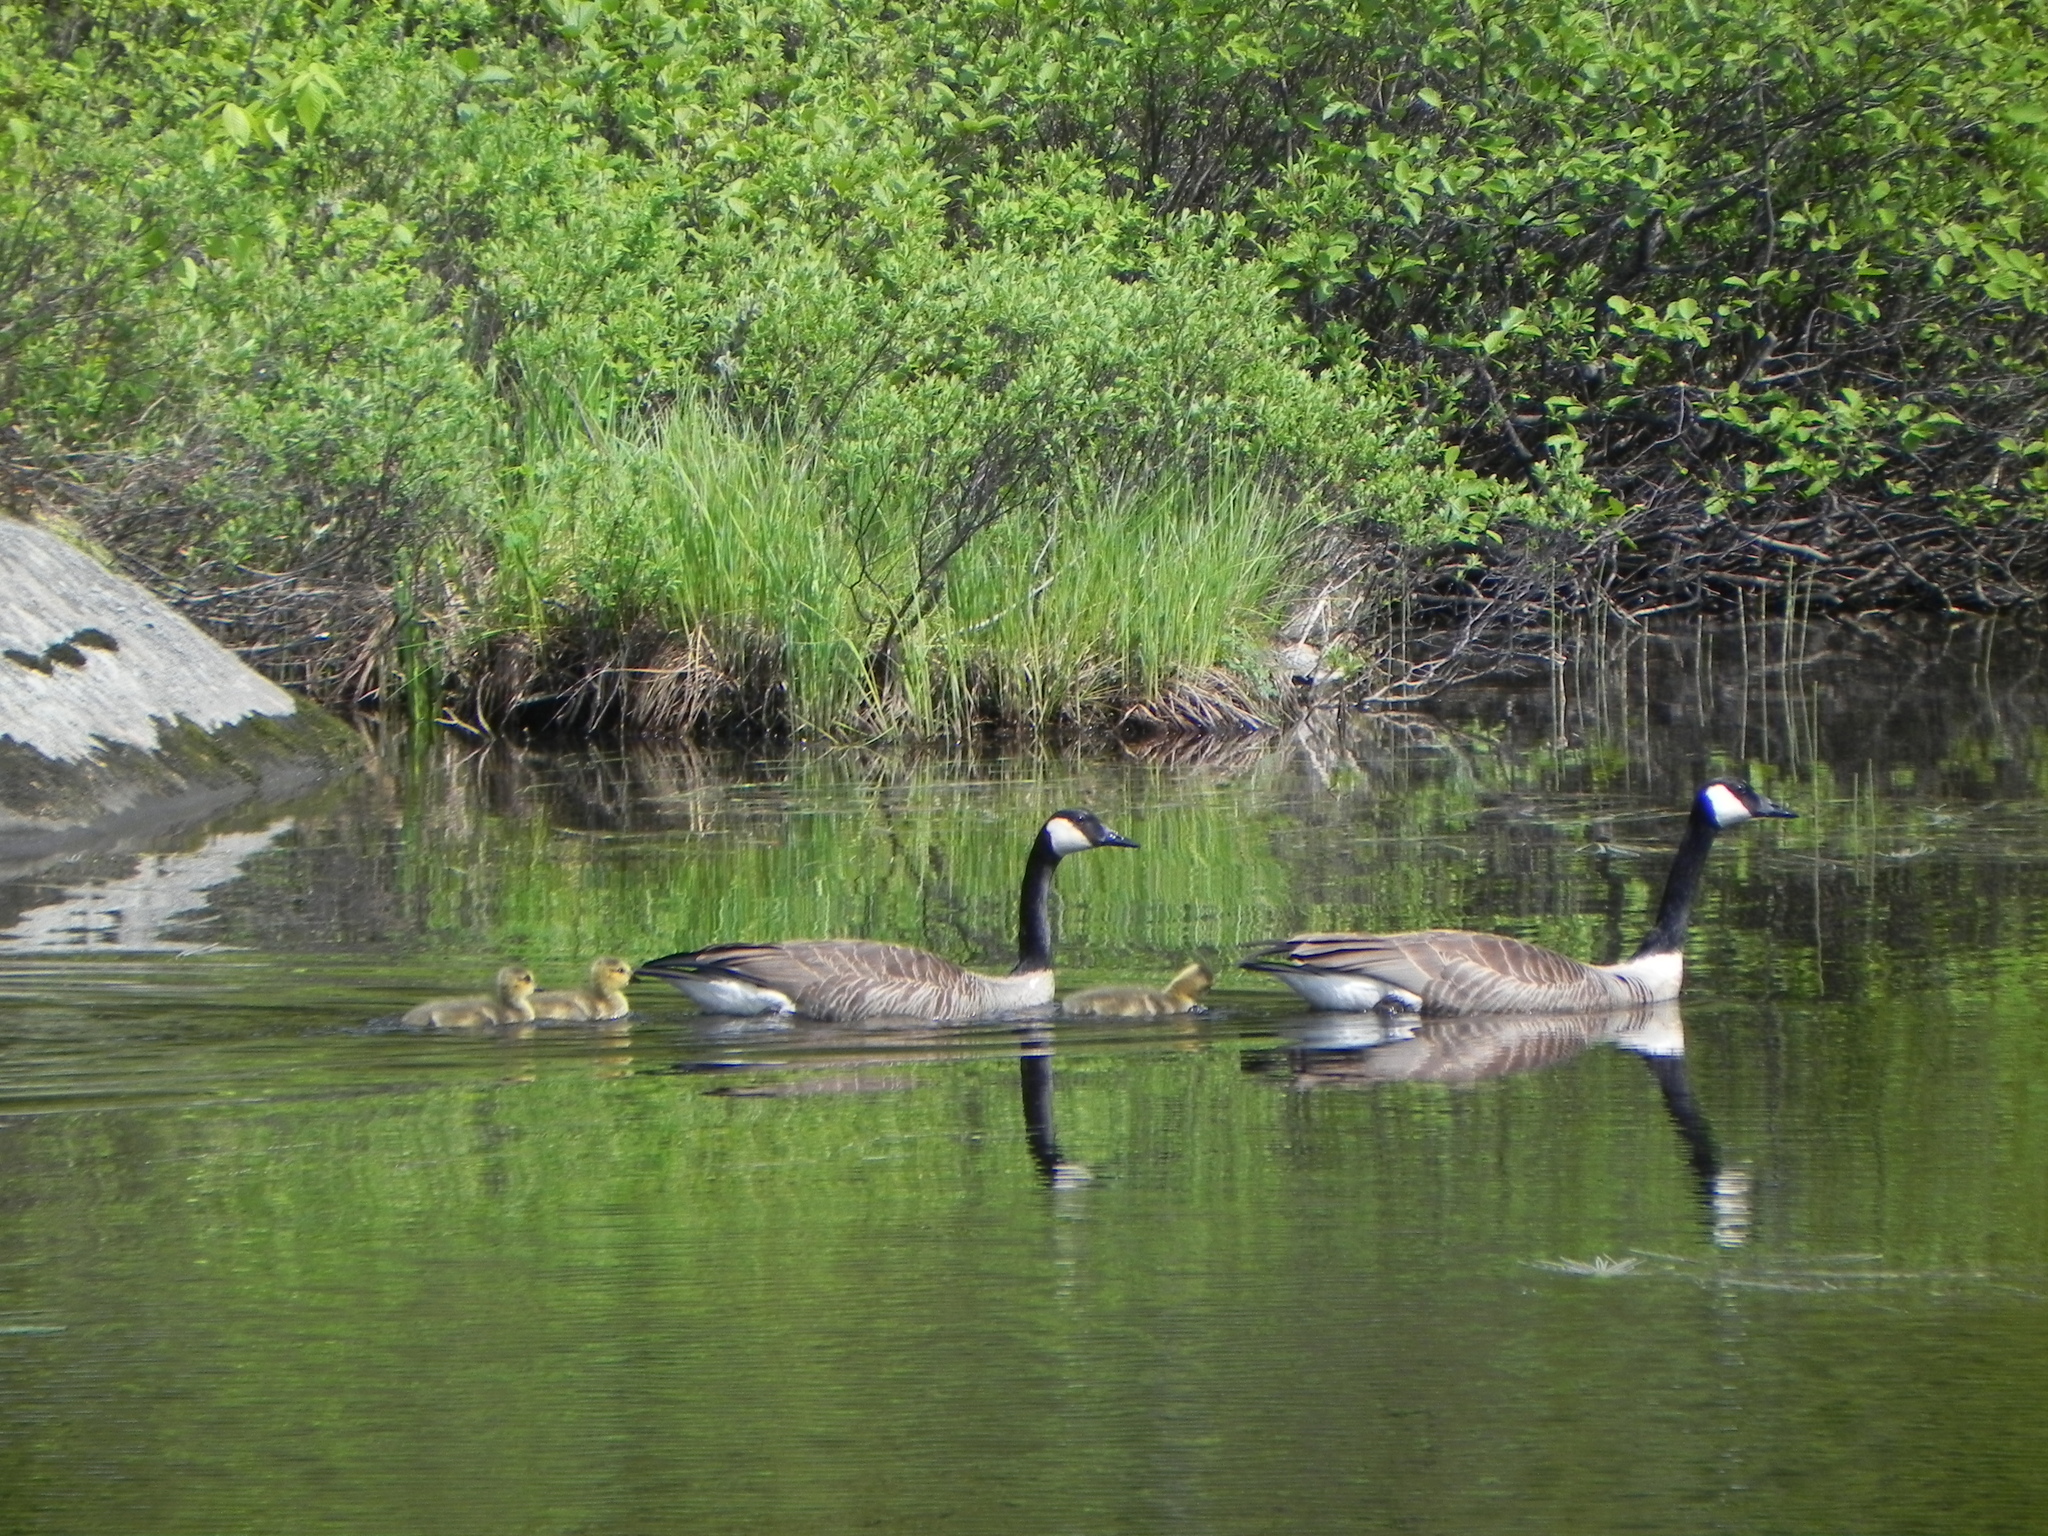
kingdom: Animalia
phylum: Chordata
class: Aves
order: Anseriformes
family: Anatidae
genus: Branta
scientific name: Branta canadensis
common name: Canada goose
